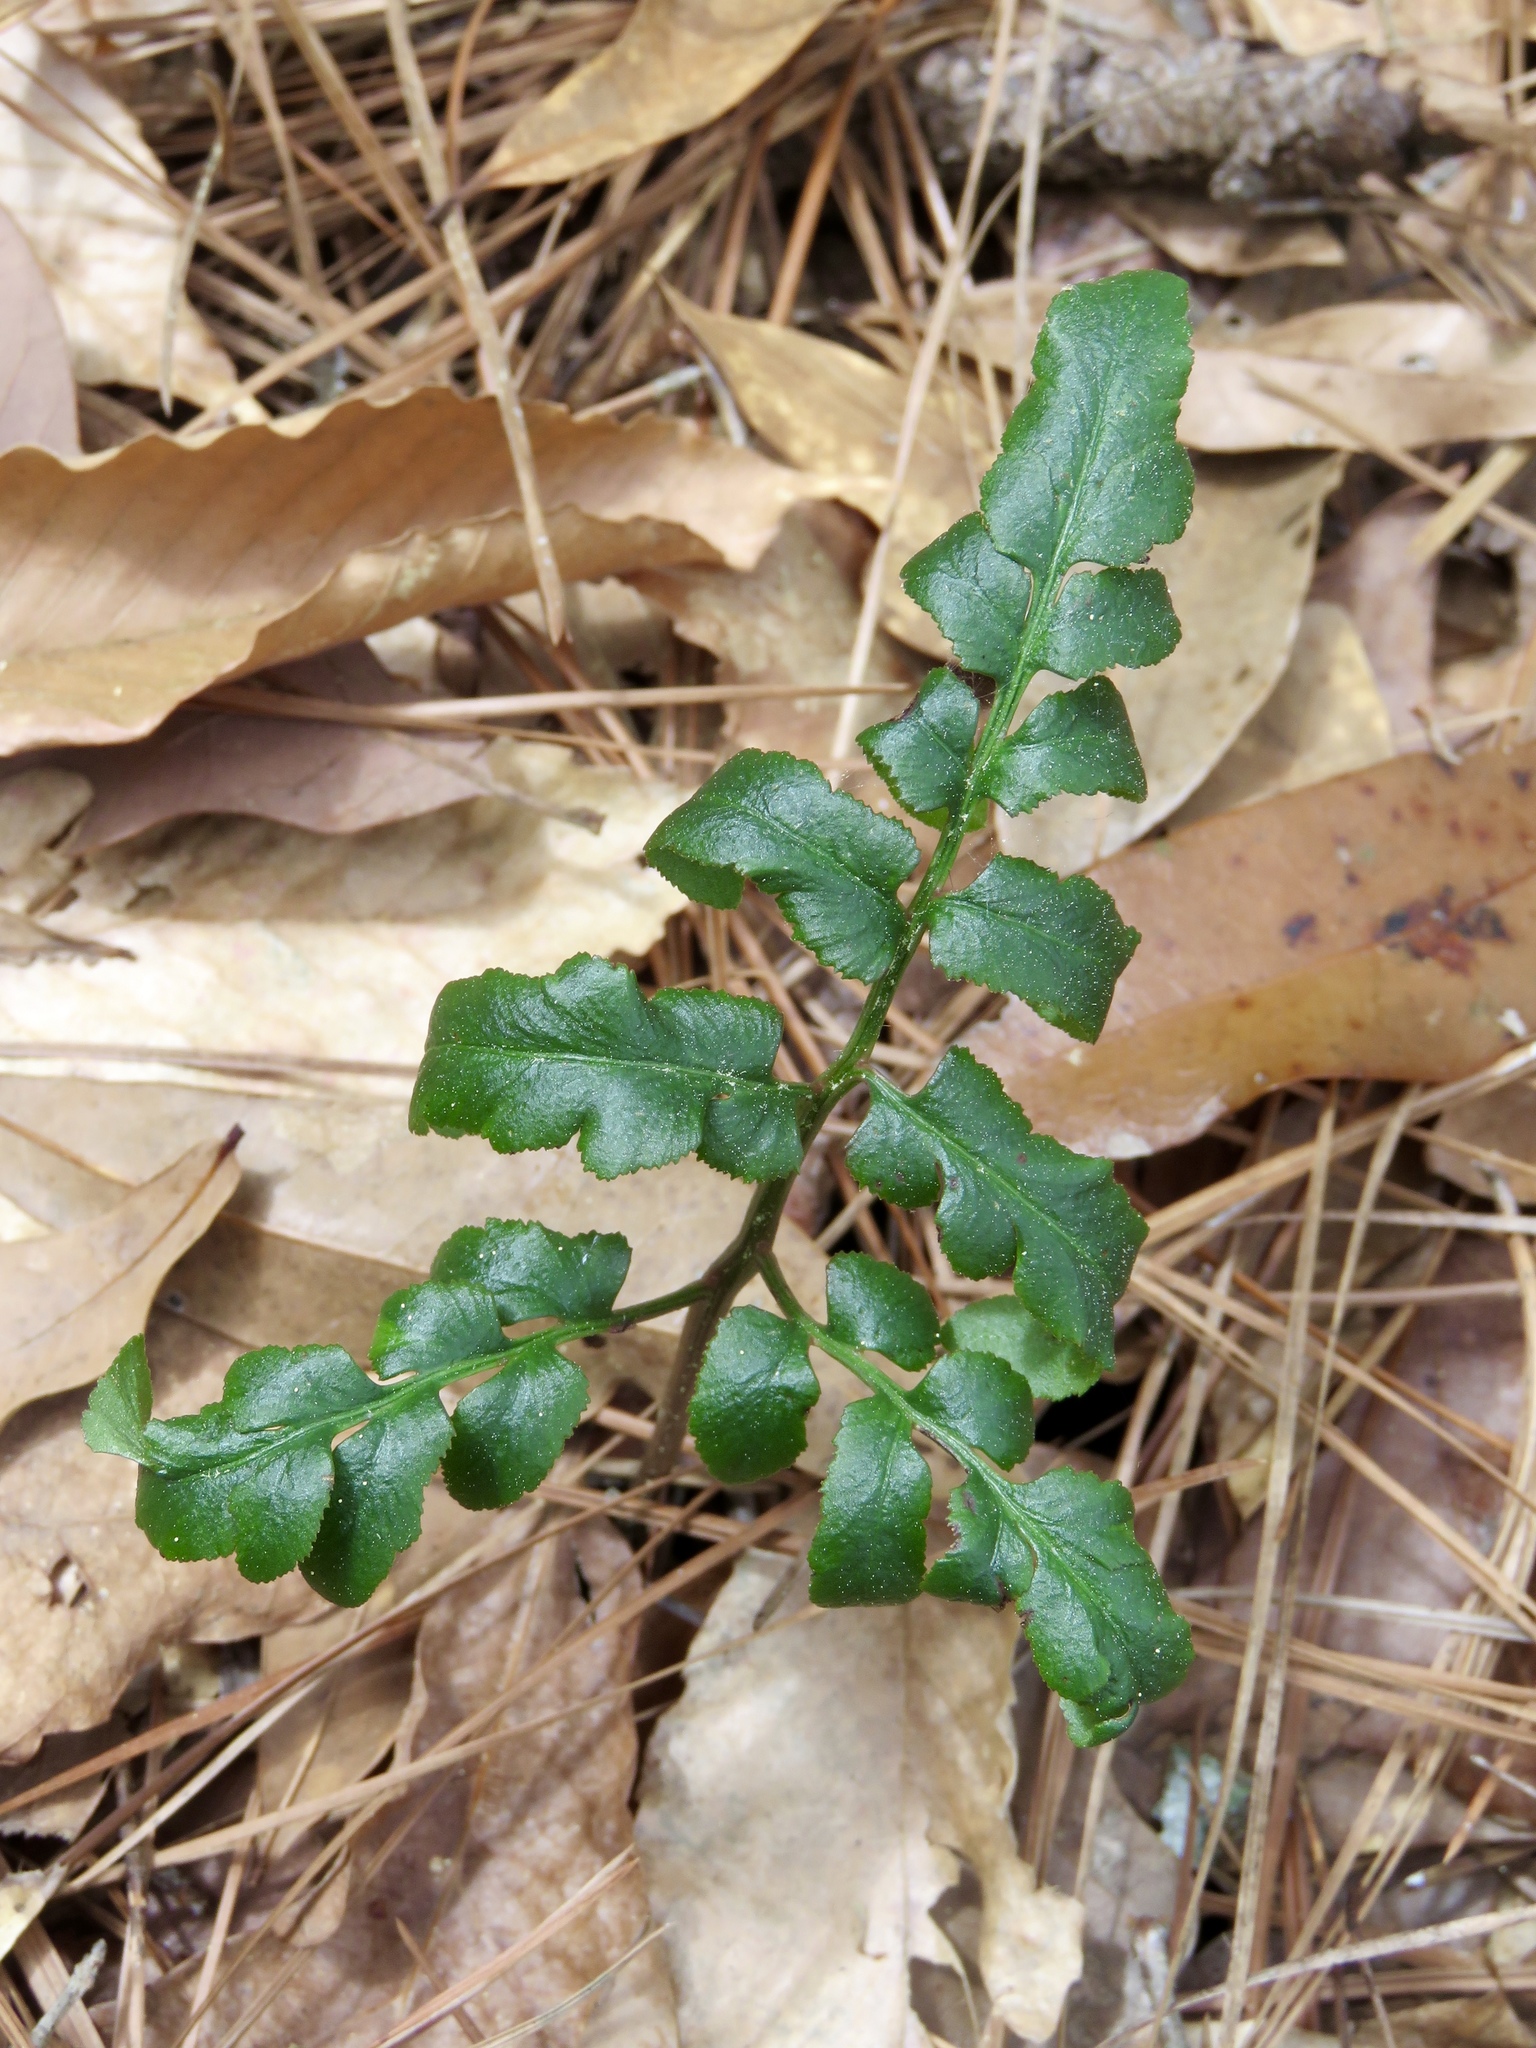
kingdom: Plantae
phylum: Tracheophyta
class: Polypodiopsida
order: Ophioglossales
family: Ophioglossaceae
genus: Sceptridium
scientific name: Sceptridium biternatum
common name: Sparse-lobed grapefern
